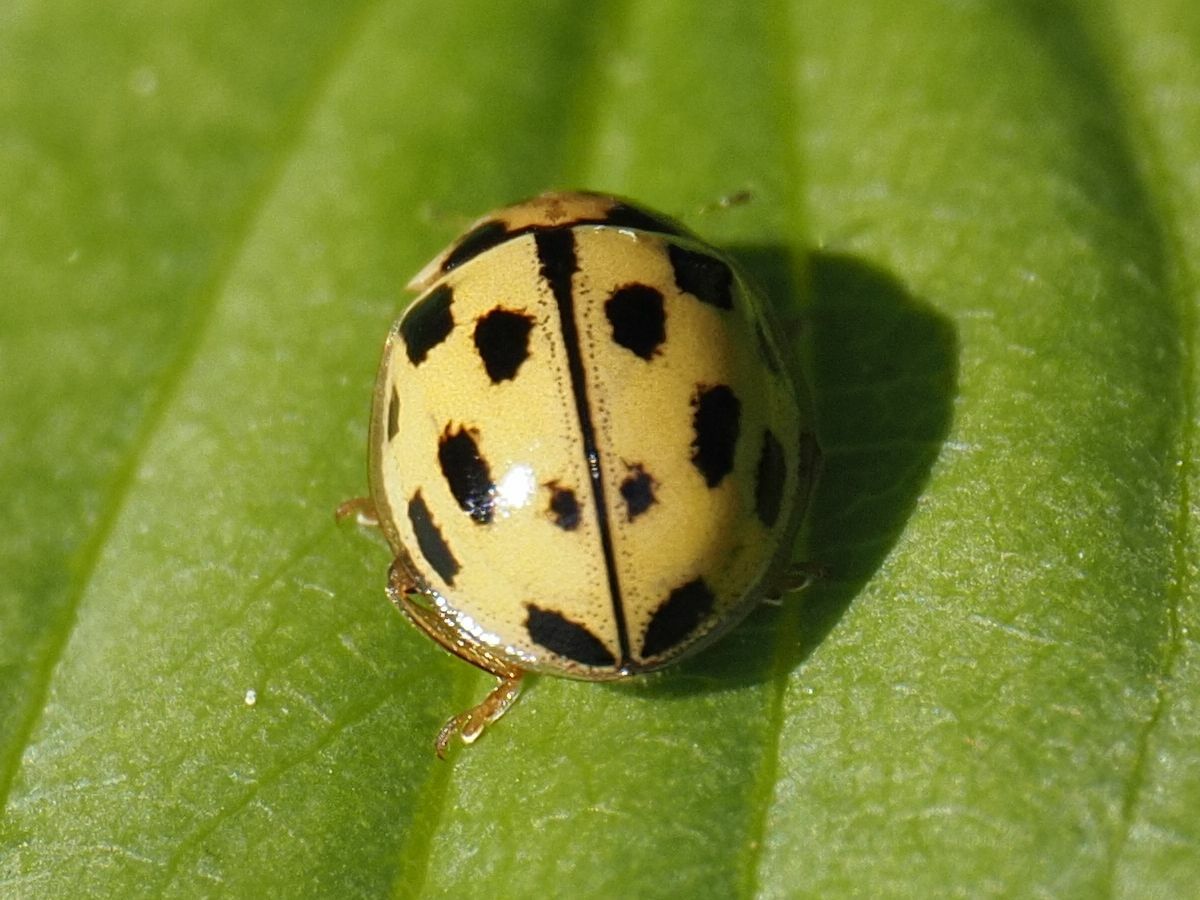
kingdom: Animalia
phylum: Arthropoda
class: Insecta
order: Coleoptera
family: Coccinellidae
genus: Propylaea
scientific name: Propylaea quatuordecimpunctata
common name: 14-spotted ladybird beetle
